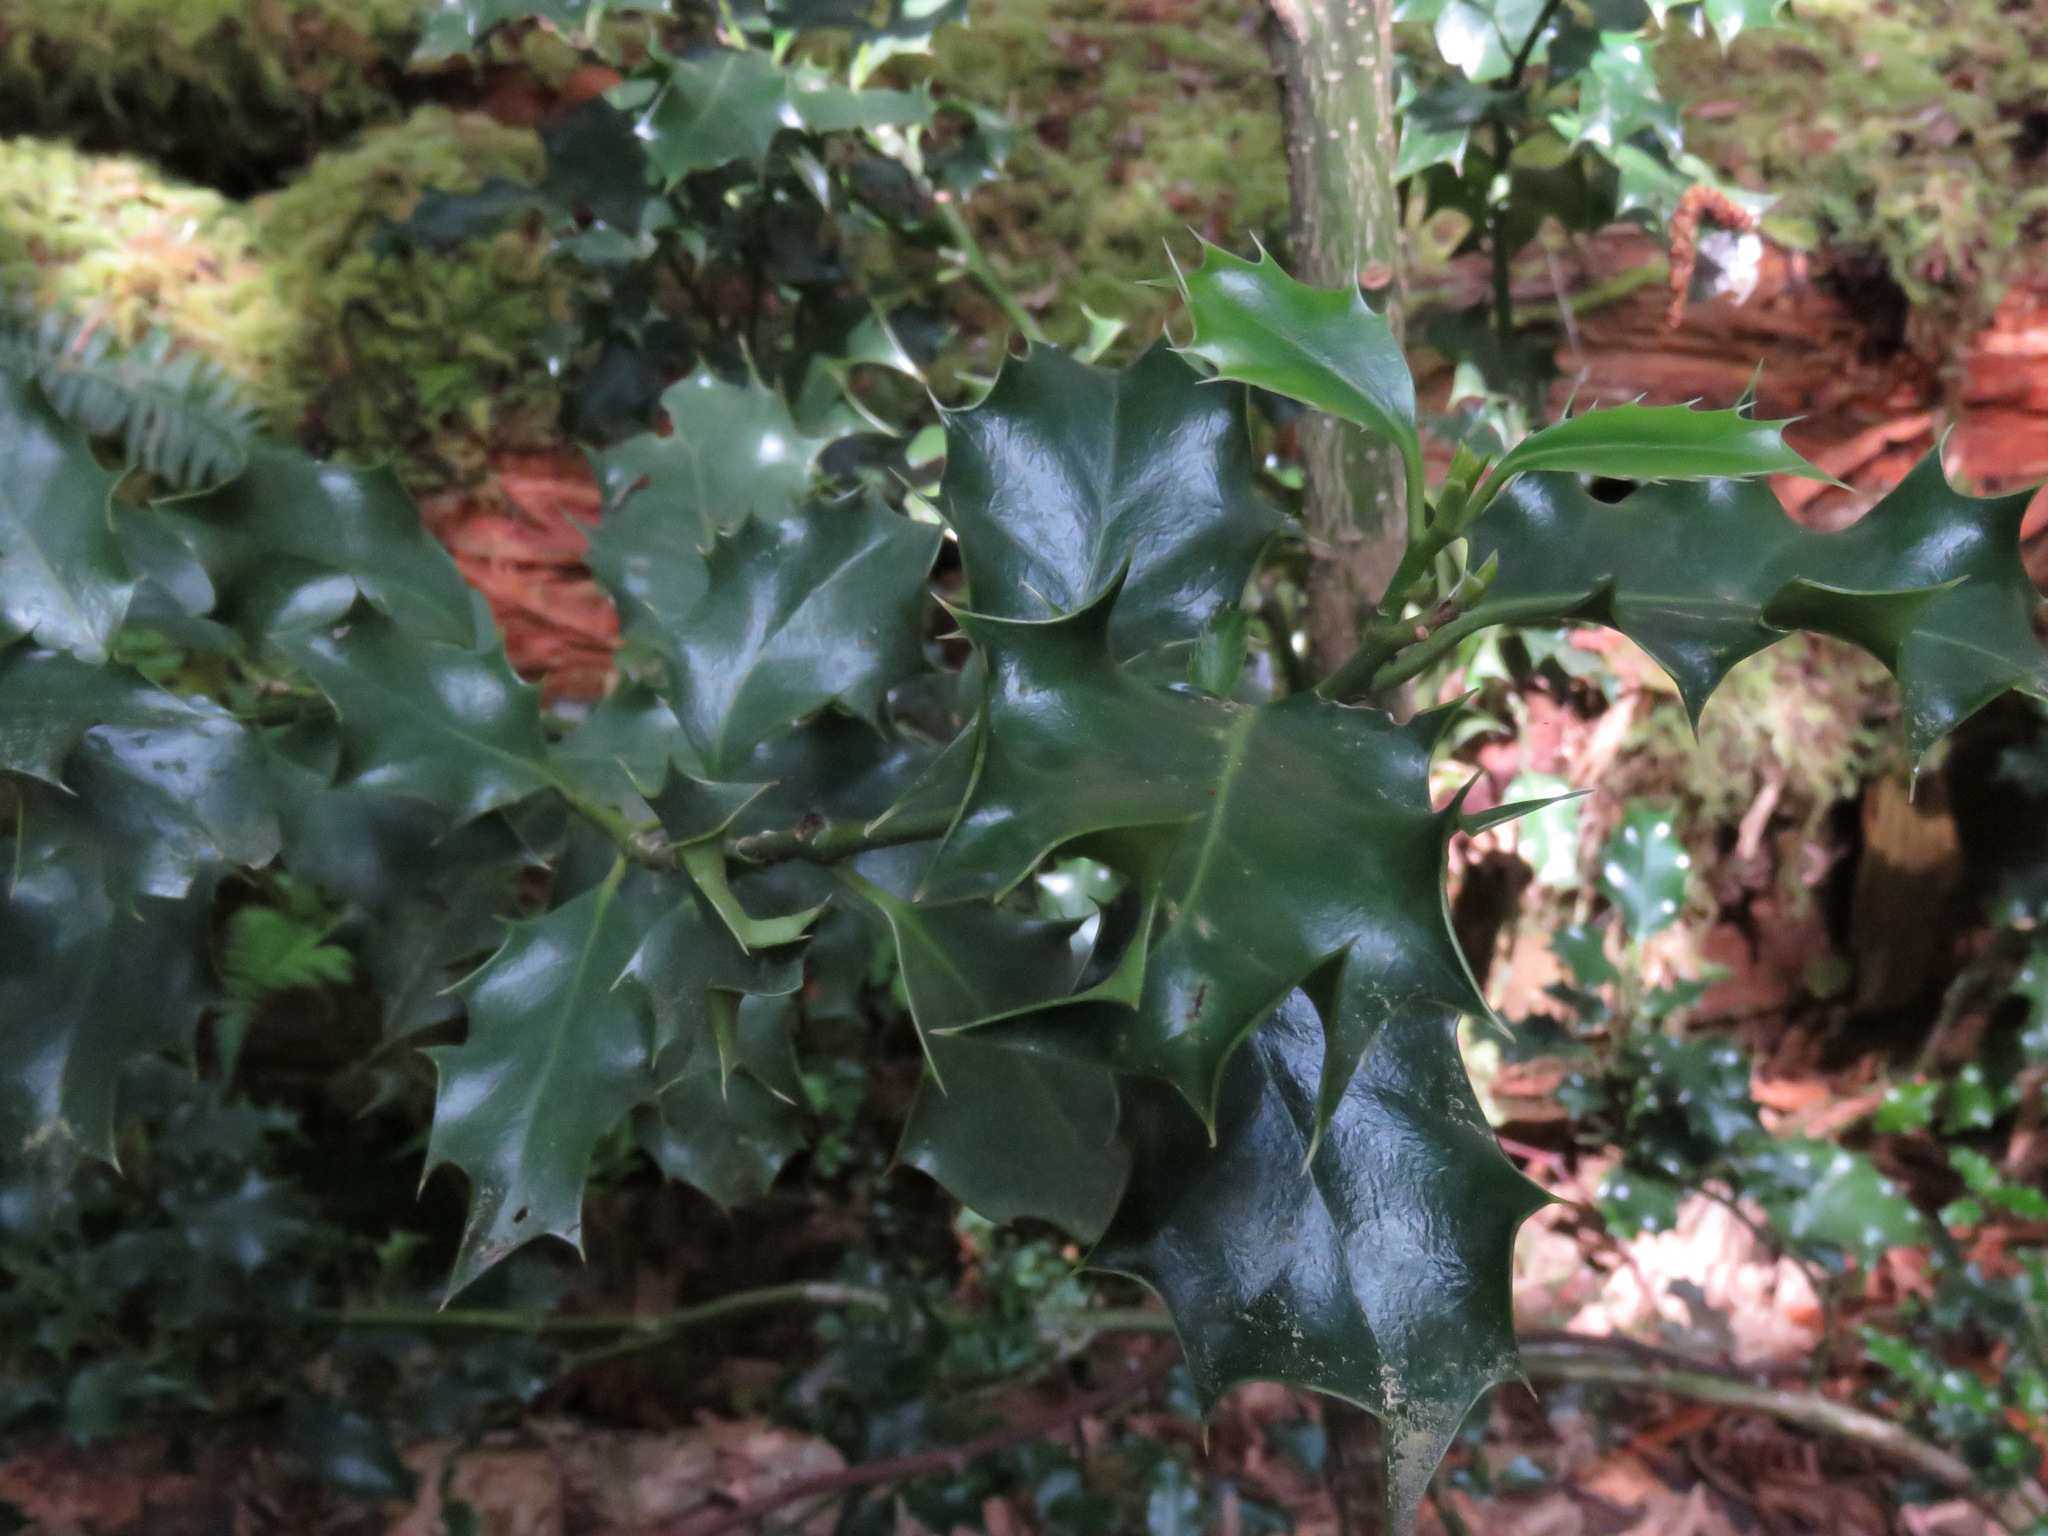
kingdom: Plantae
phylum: Tracheophyta
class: Magnoliopsida
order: Aquifoliales
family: Aquifoliaceae
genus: Ilex
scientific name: Ilex aquifolium
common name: English holly
